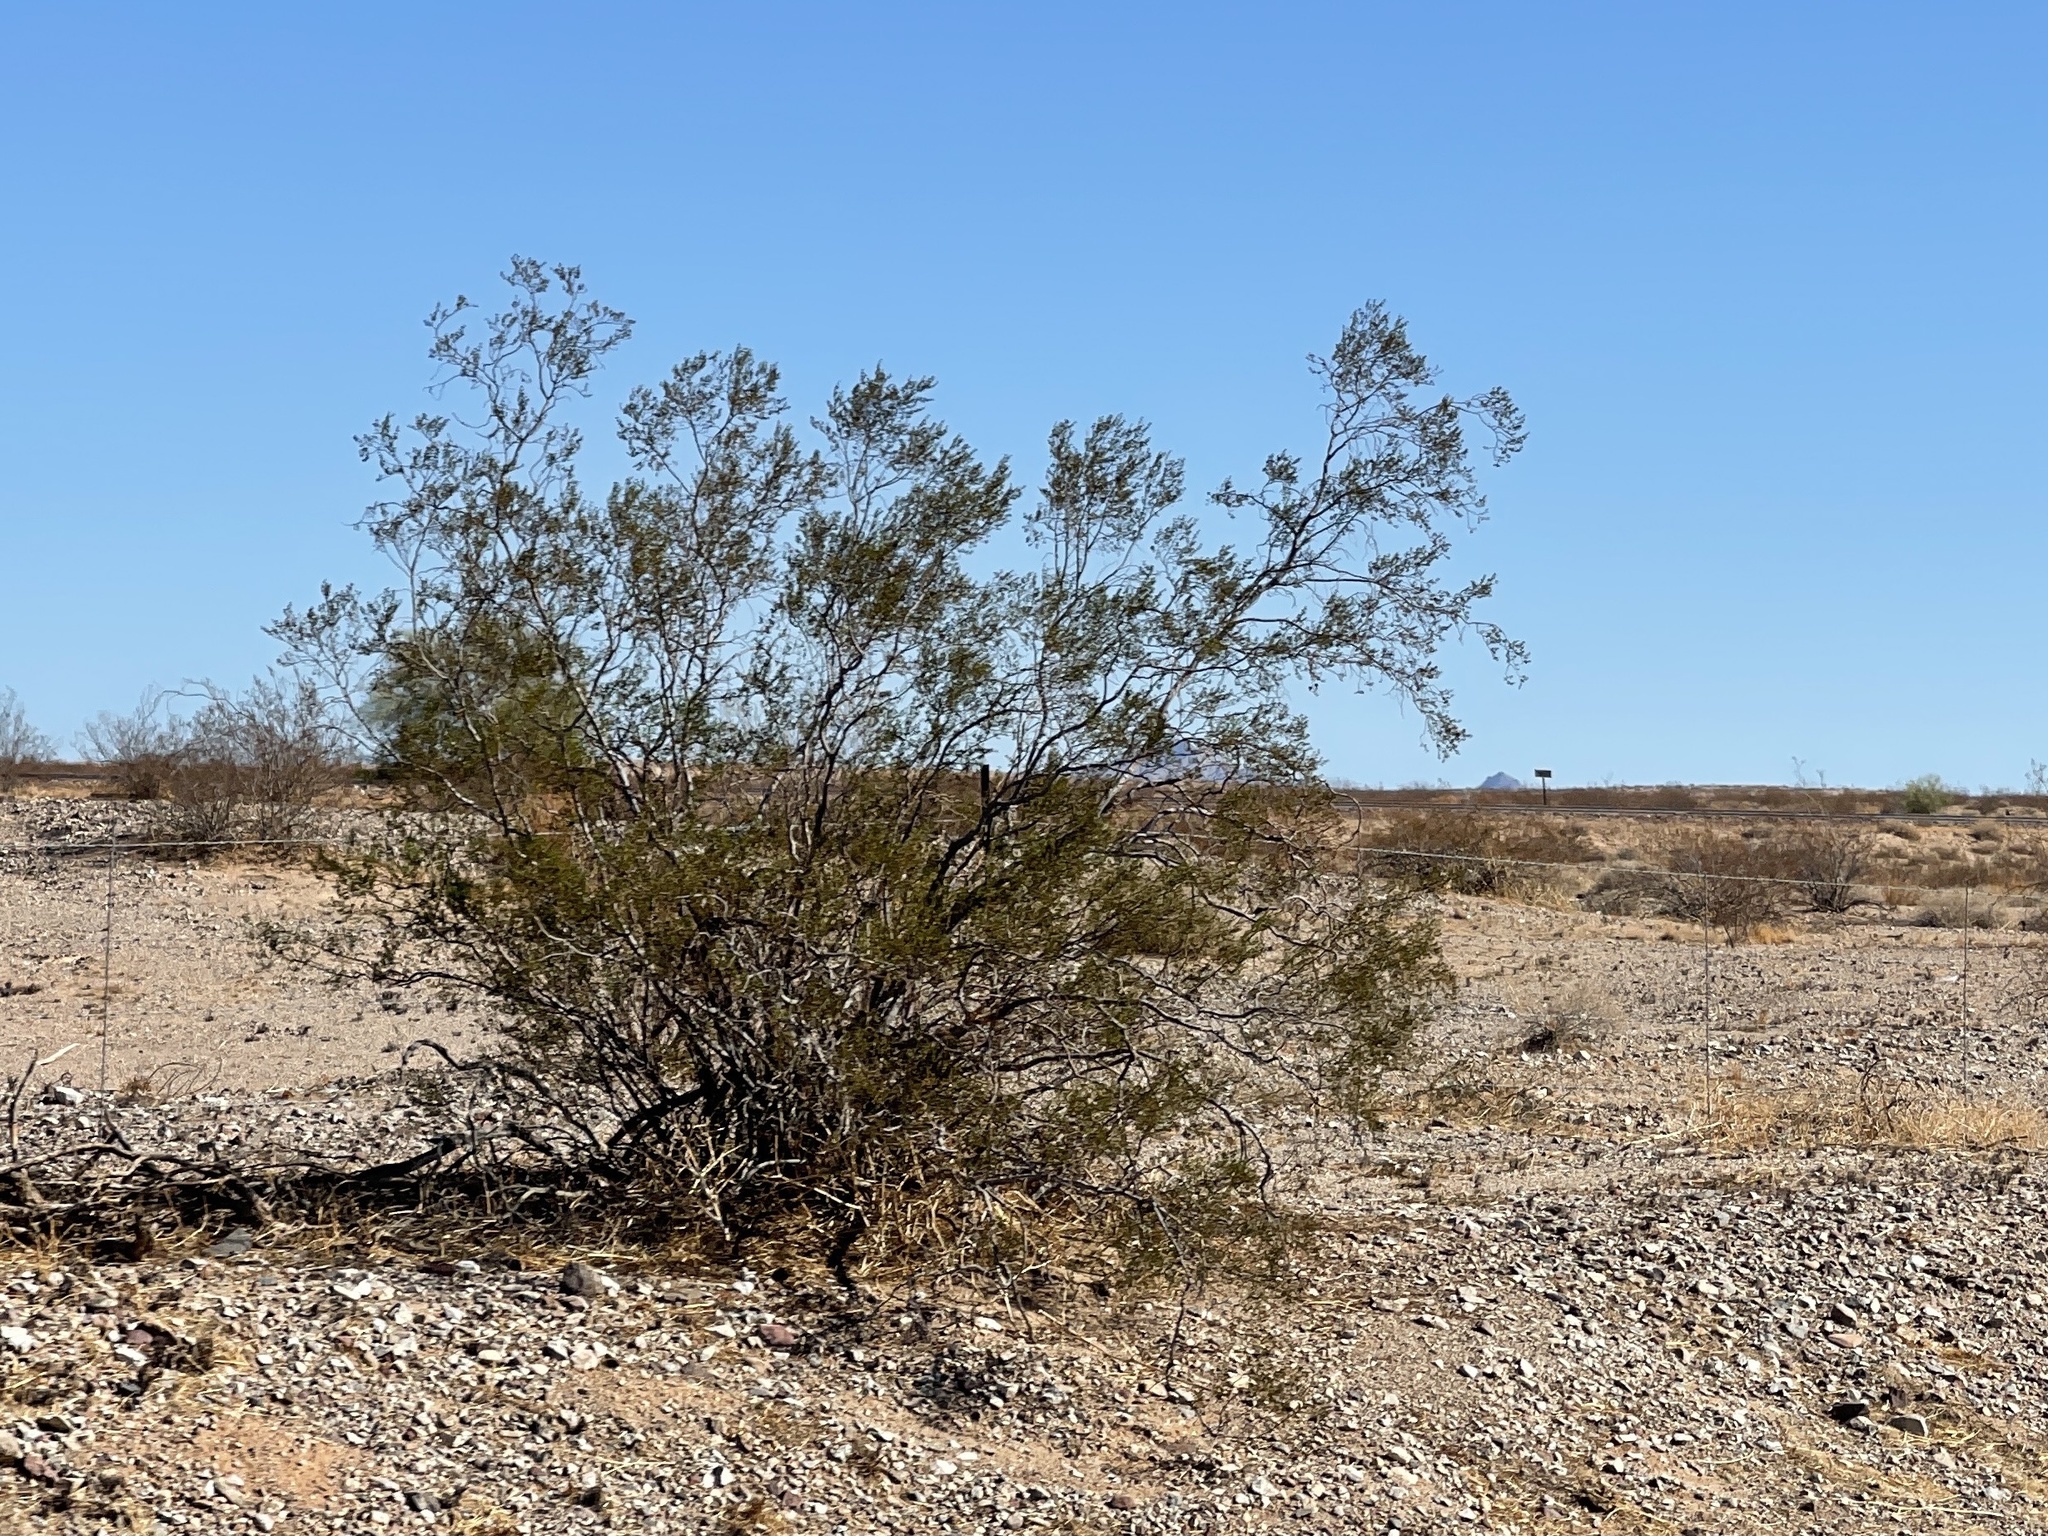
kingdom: Plantae
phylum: Tracheophyta
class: Magnoliopsida
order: Zygophyllales
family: Zygophyllaceae
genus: Larrea
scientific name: Larrea tridentata
